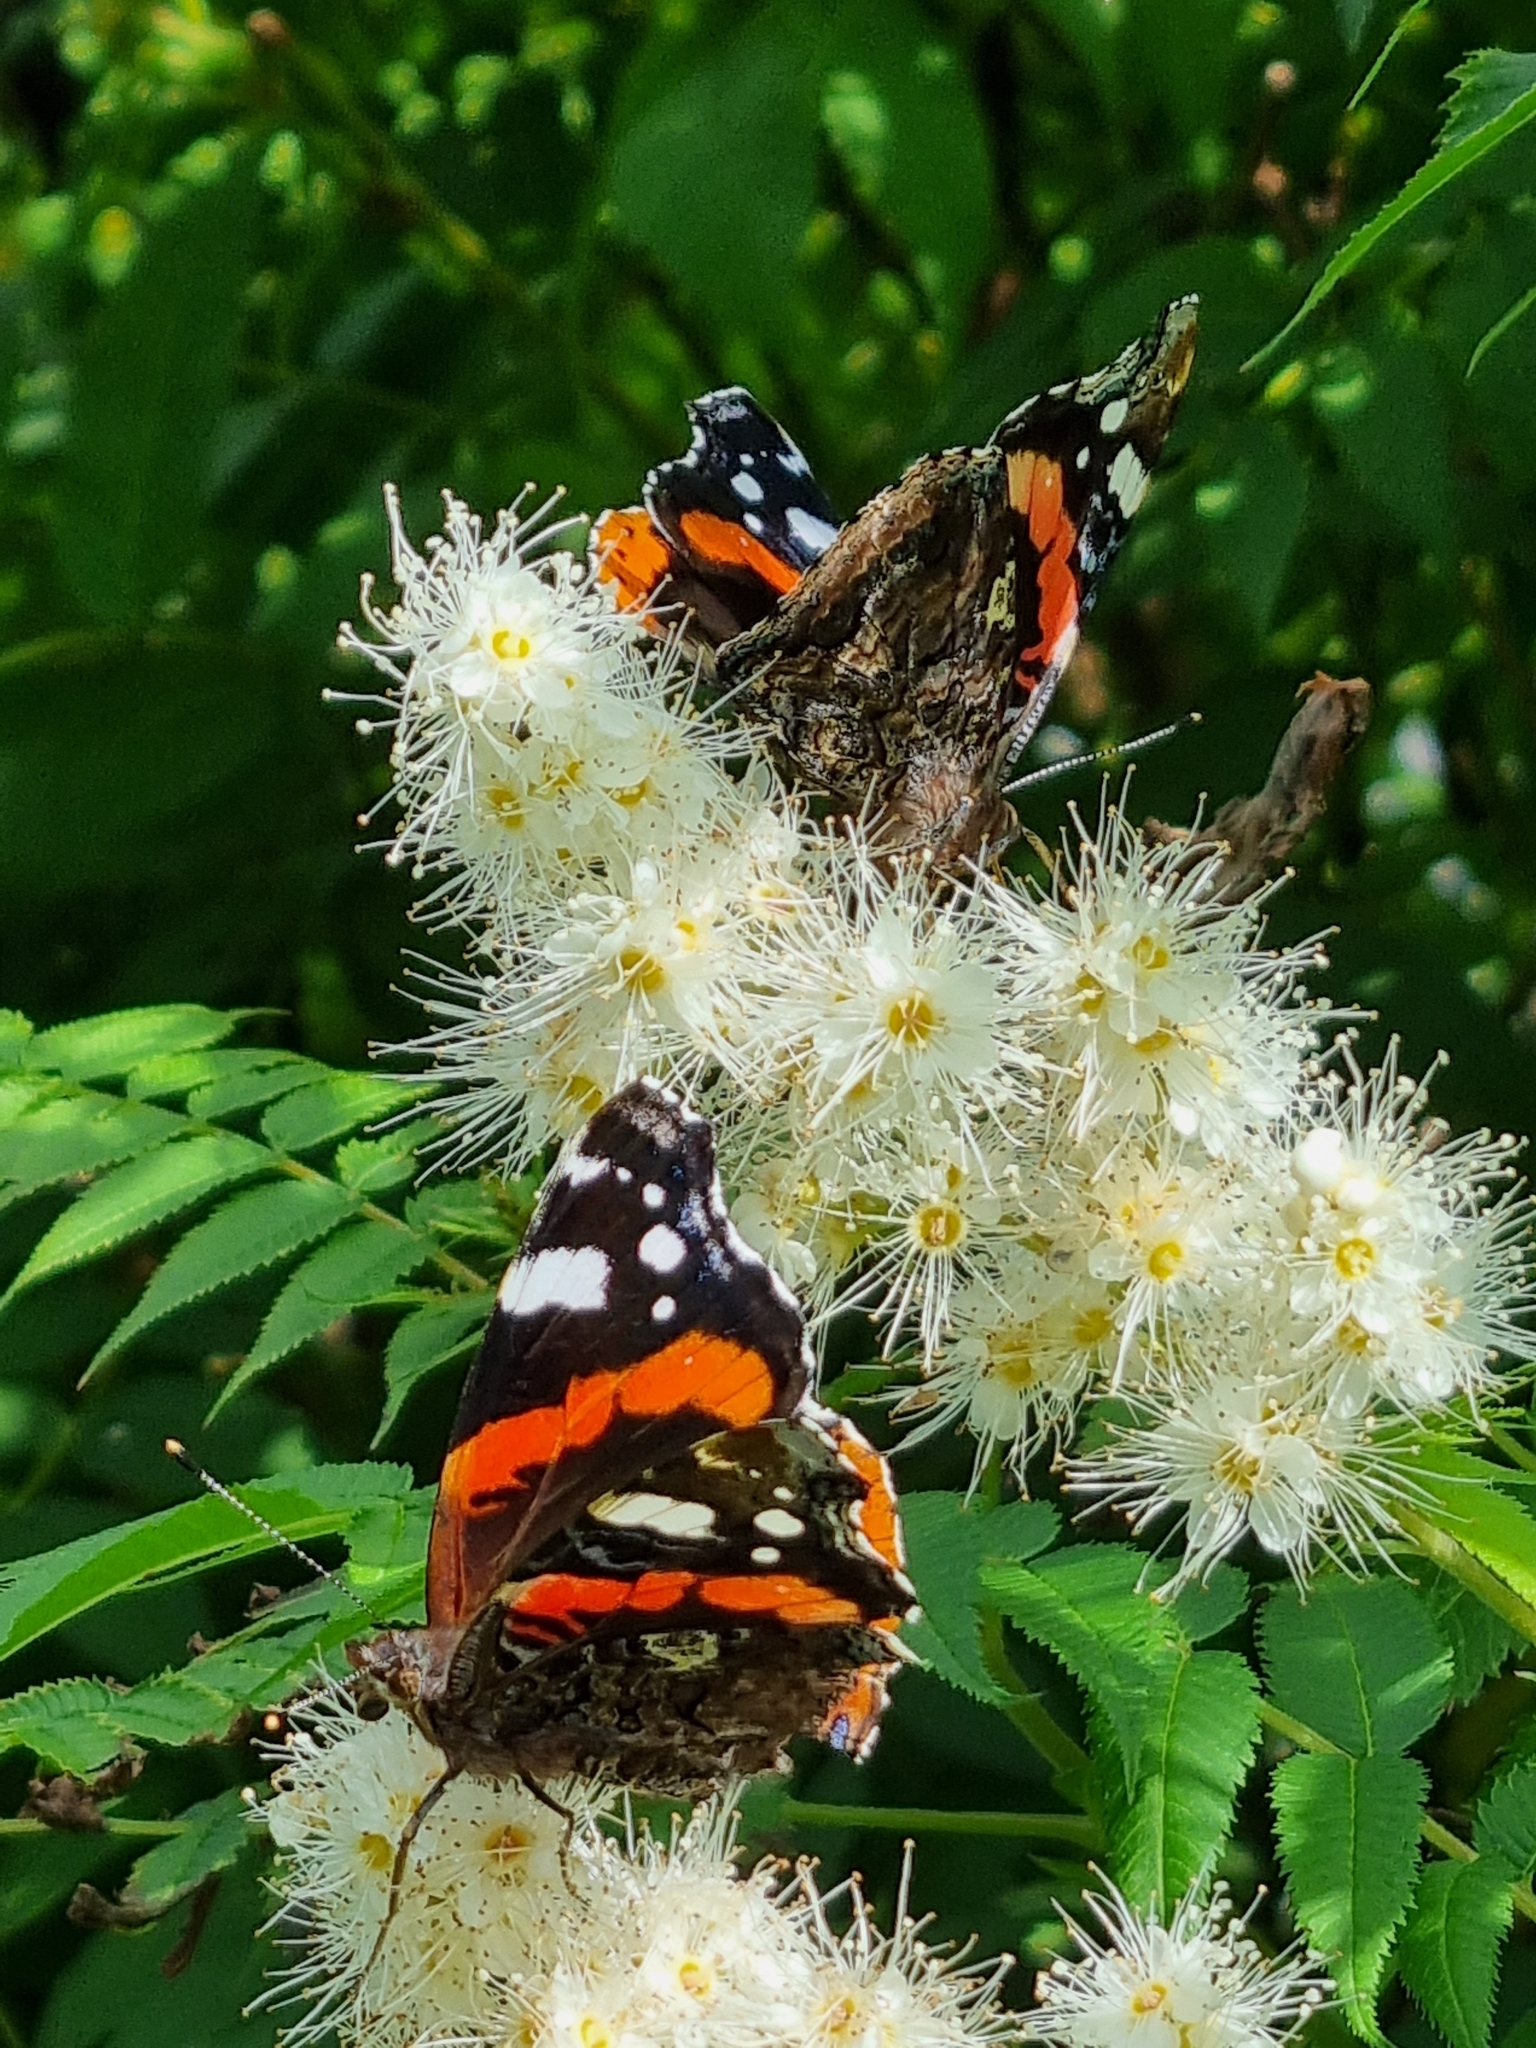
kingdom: Animalia
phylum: Arthropoda
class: Insecta
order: Lepidoptera
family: Nymphalidae
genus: Vanessa
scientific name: Vanessa atalanta
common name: Red admiral
